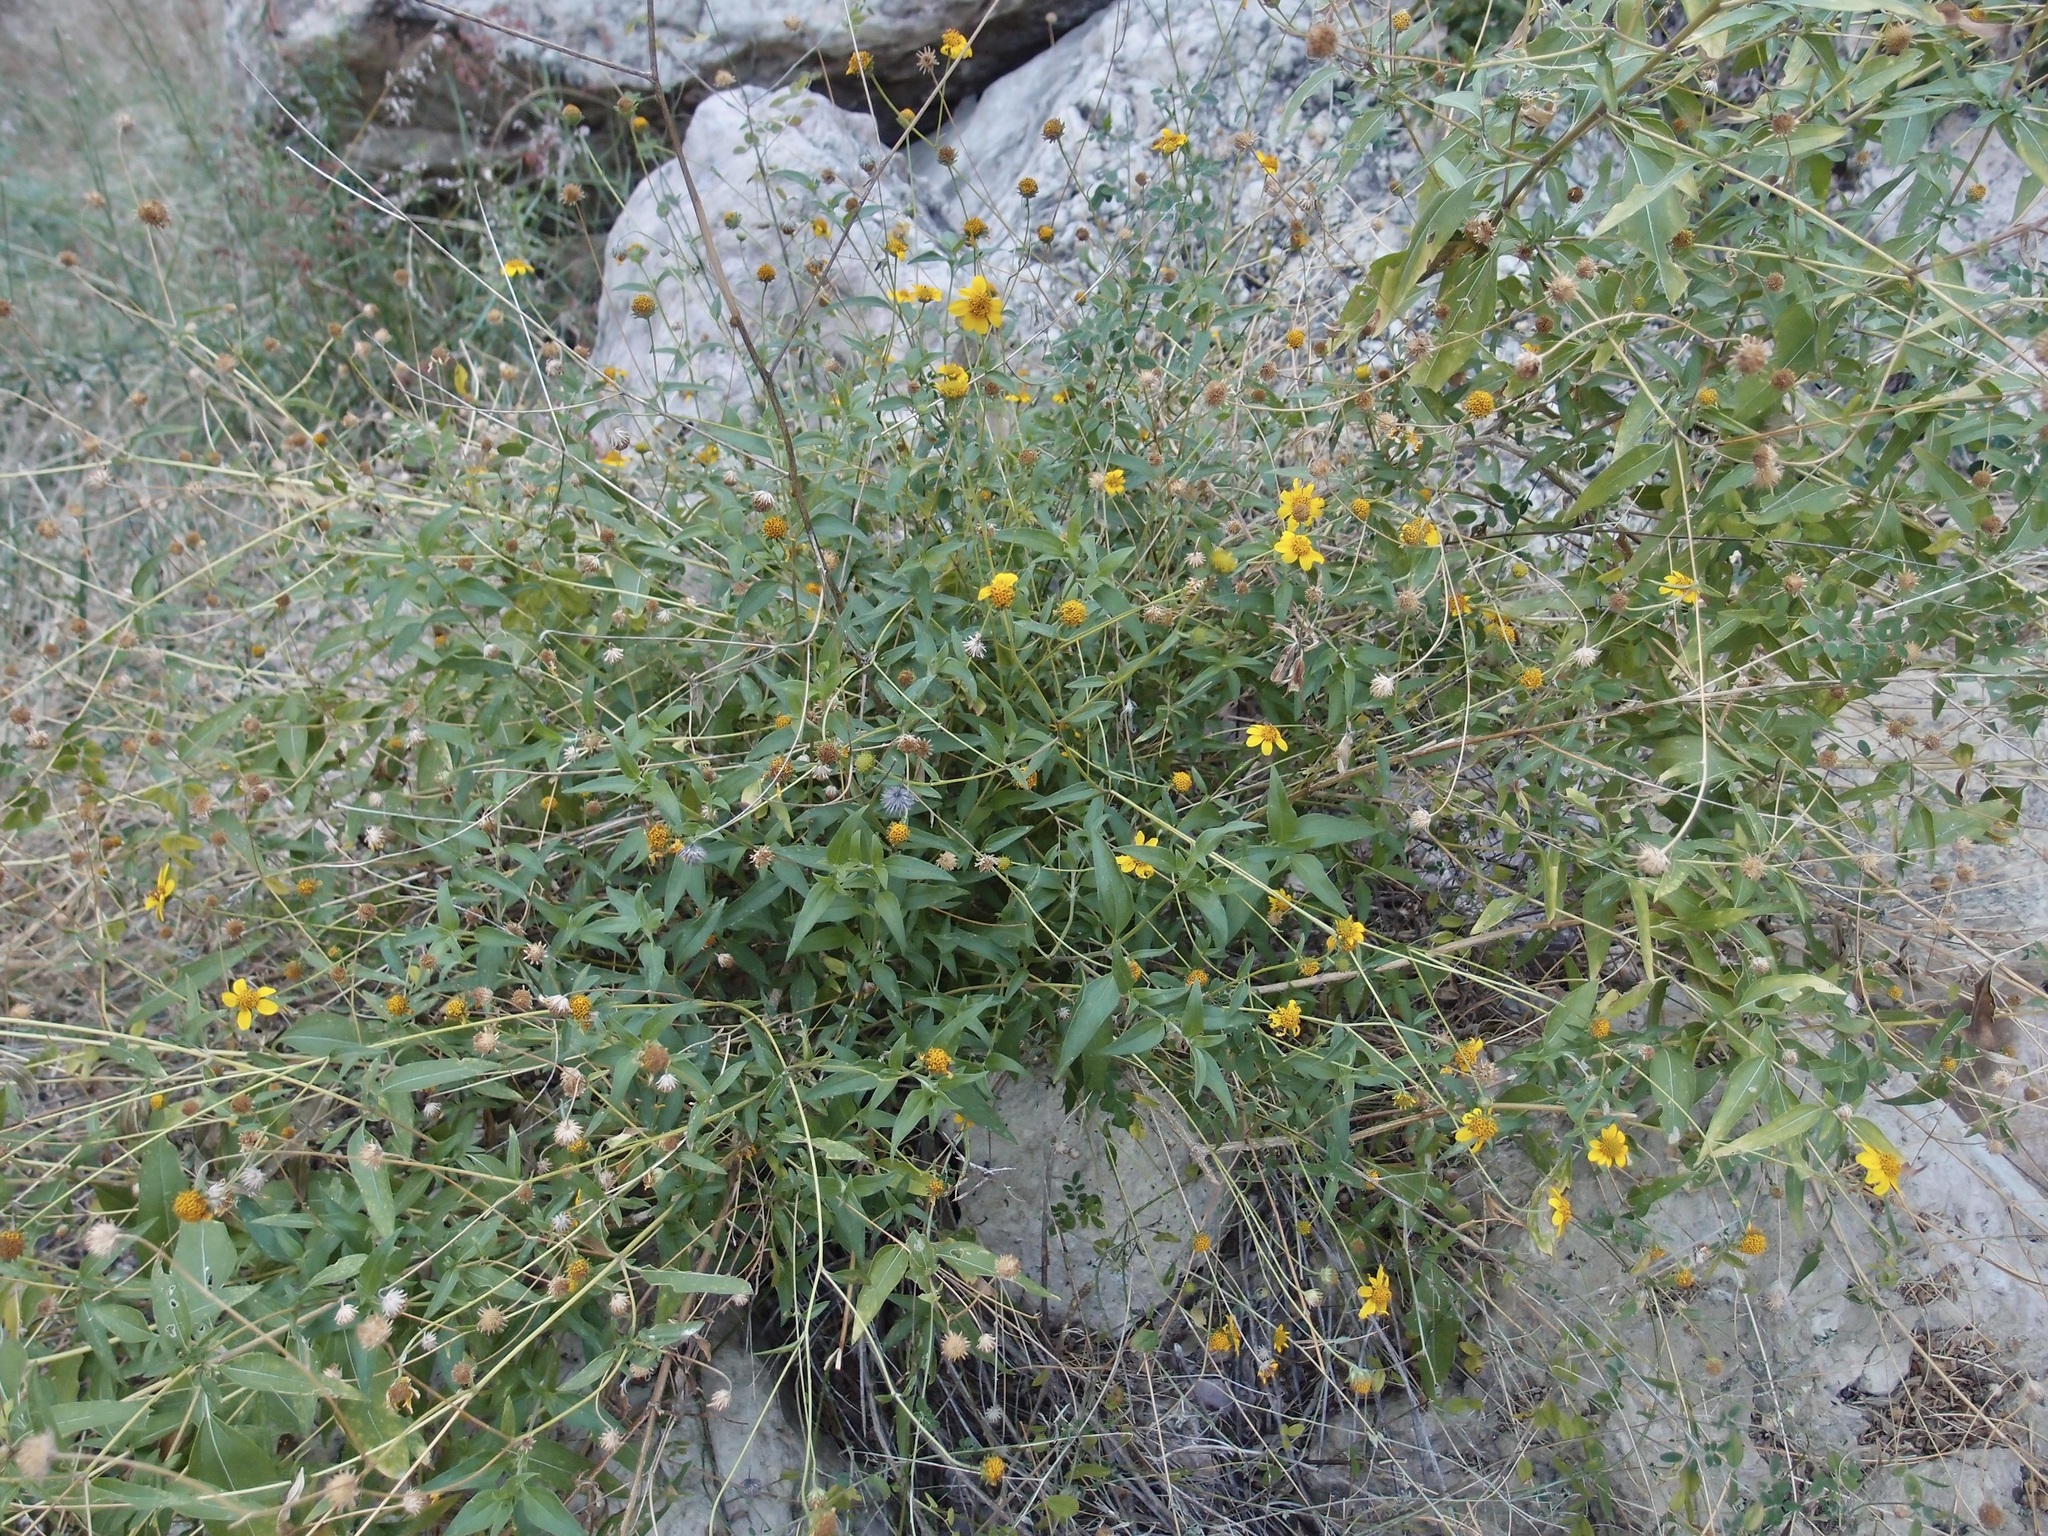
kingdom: Plantae
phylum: Tracheophyta
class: Magnoliopsida
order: Asterales
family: Asteraceae
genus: Viguiera
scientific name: Viguiera dentata
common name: Toothleaf
